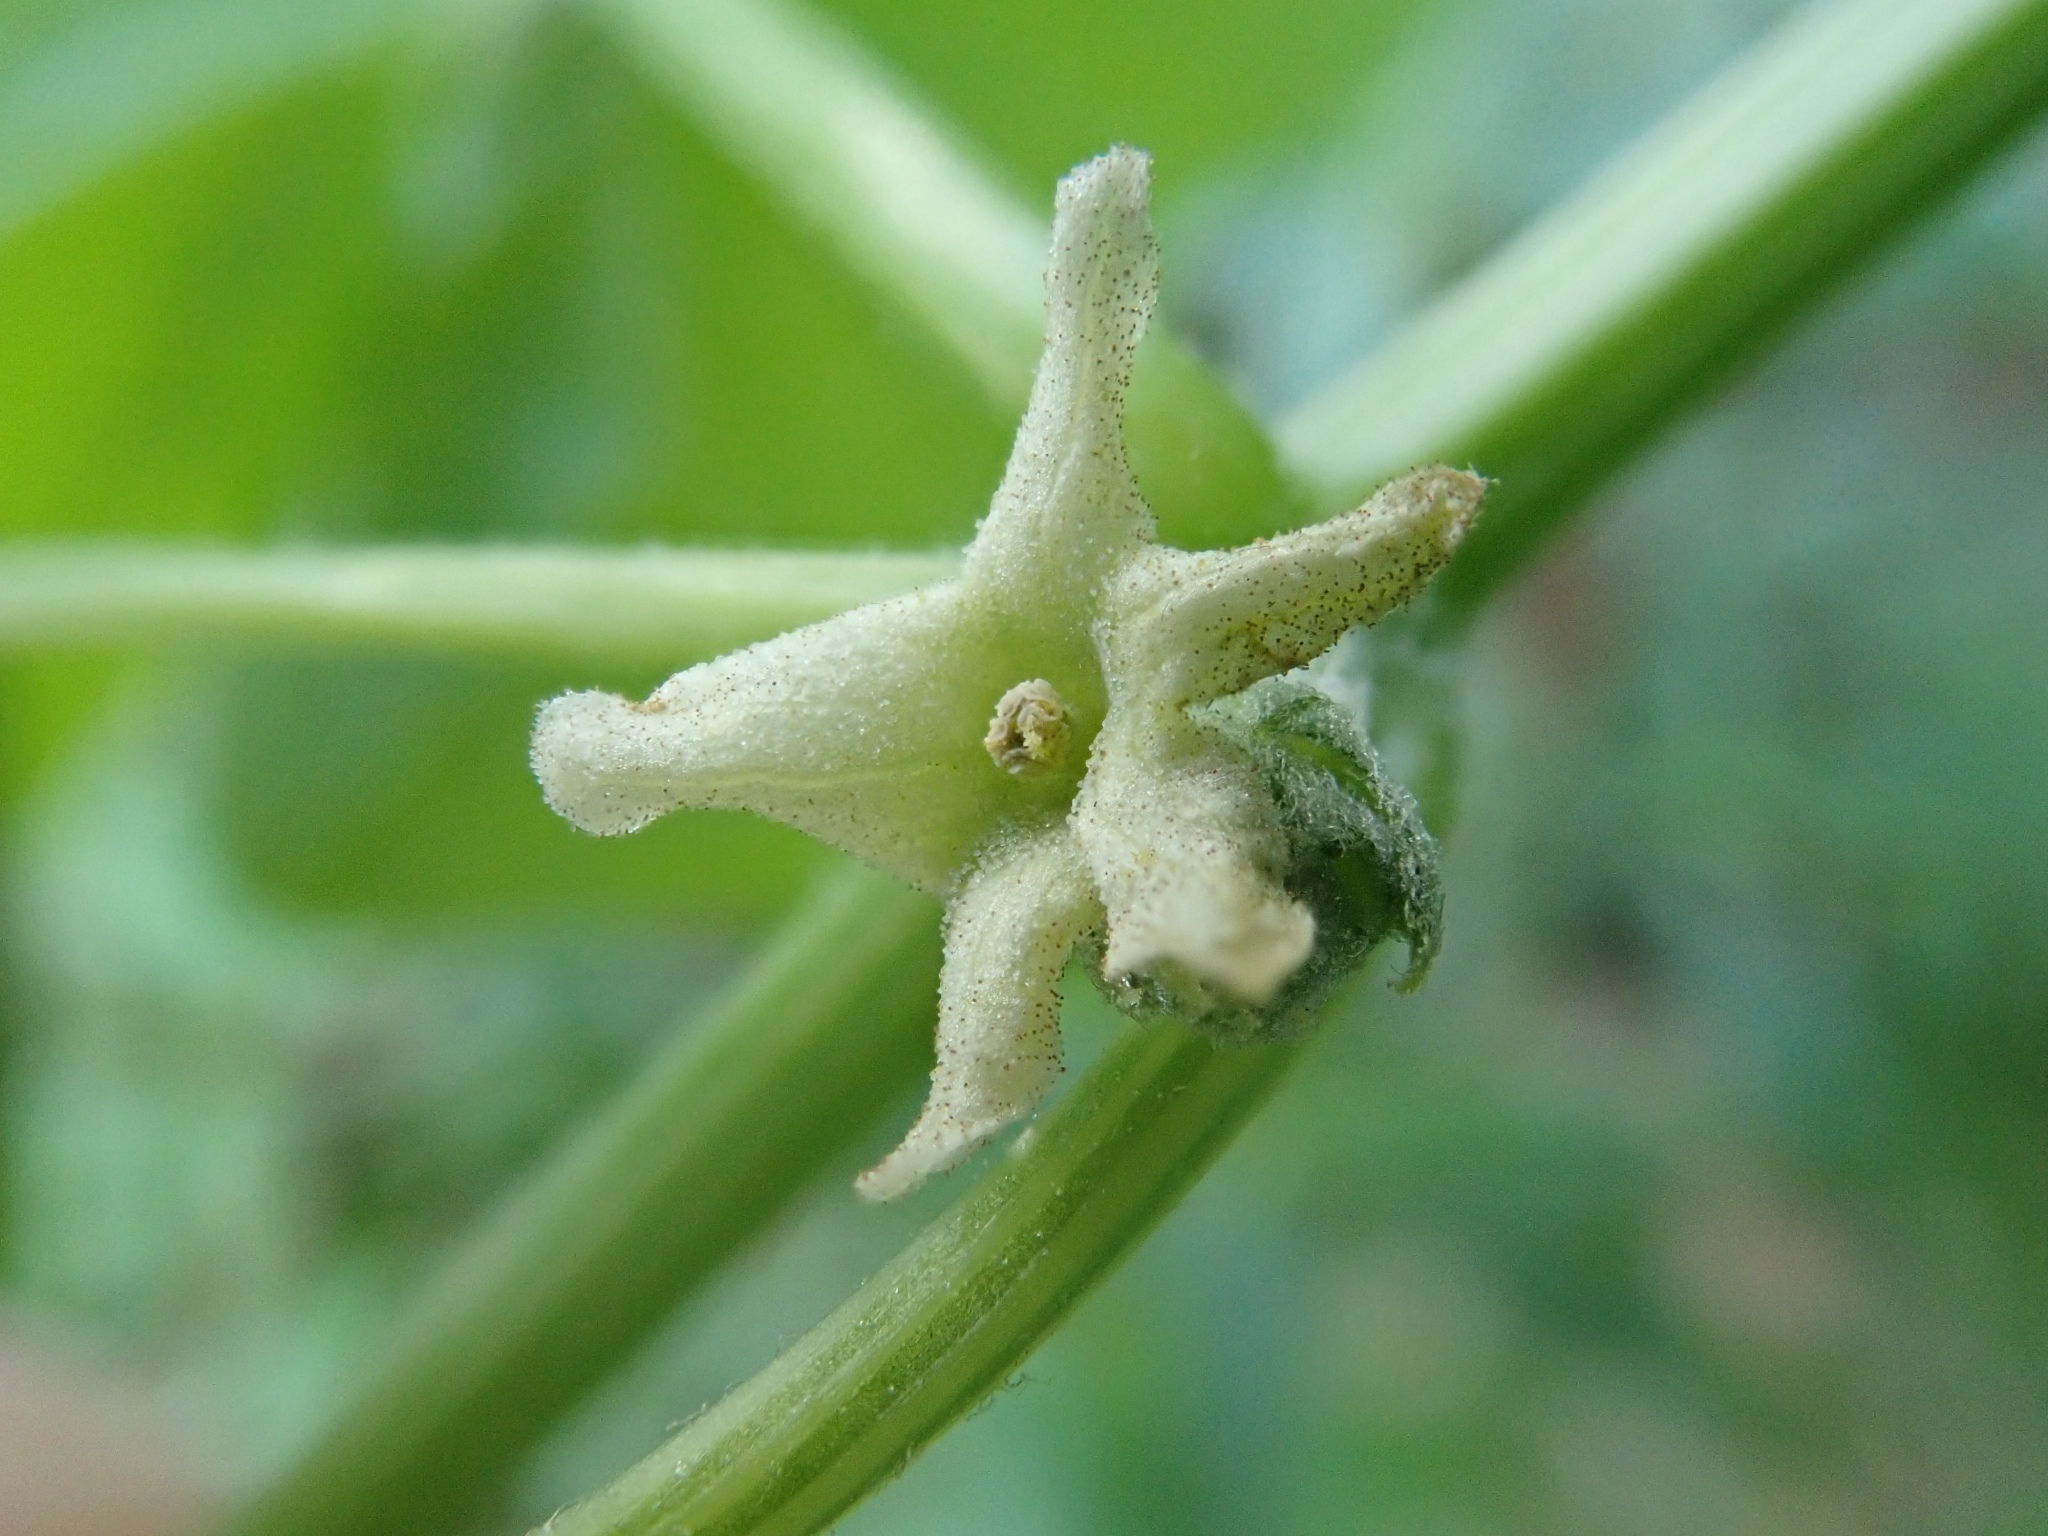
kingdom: Plantae
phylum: Tracheophyta
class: Magnoliopsida
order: Cucurbitales
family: Cucurbitaceae
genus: Marah
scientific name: Marah fabacea
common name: California manroot
